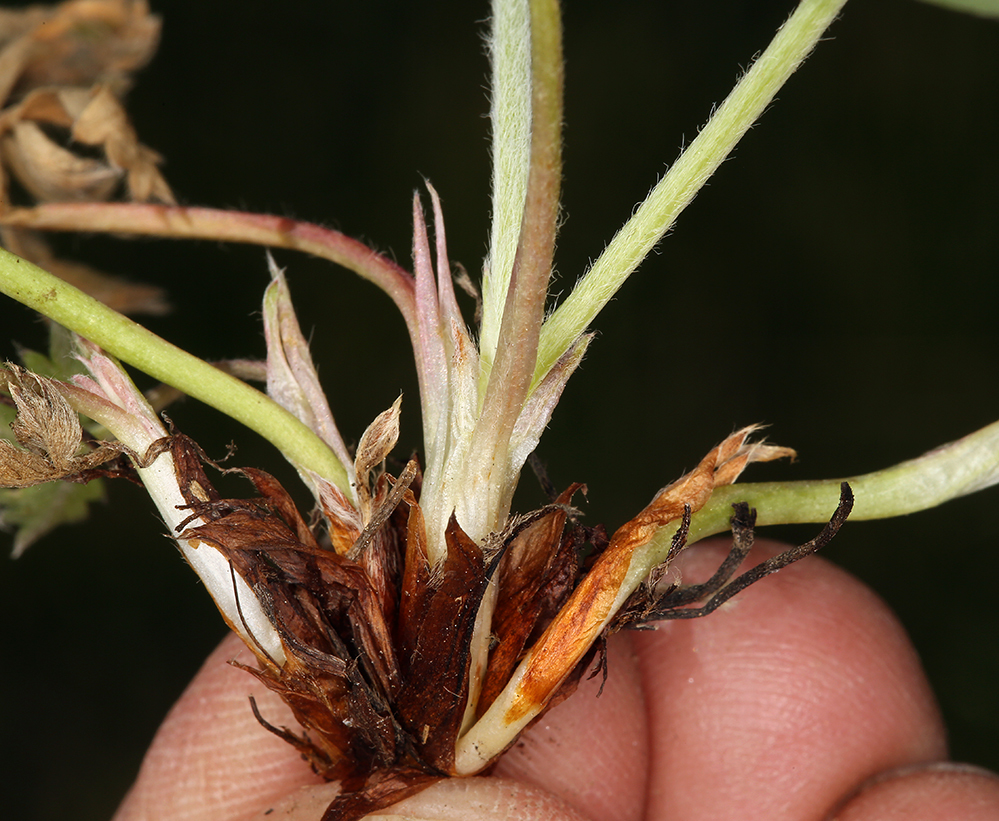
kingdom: Plantae
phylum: Tracheophyta
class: Magnoliopsida
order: Rosales
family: Rosaceae
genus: Potentilla
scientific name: Potentilla glaucophylla
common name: Blue-leaved cinquefoil
